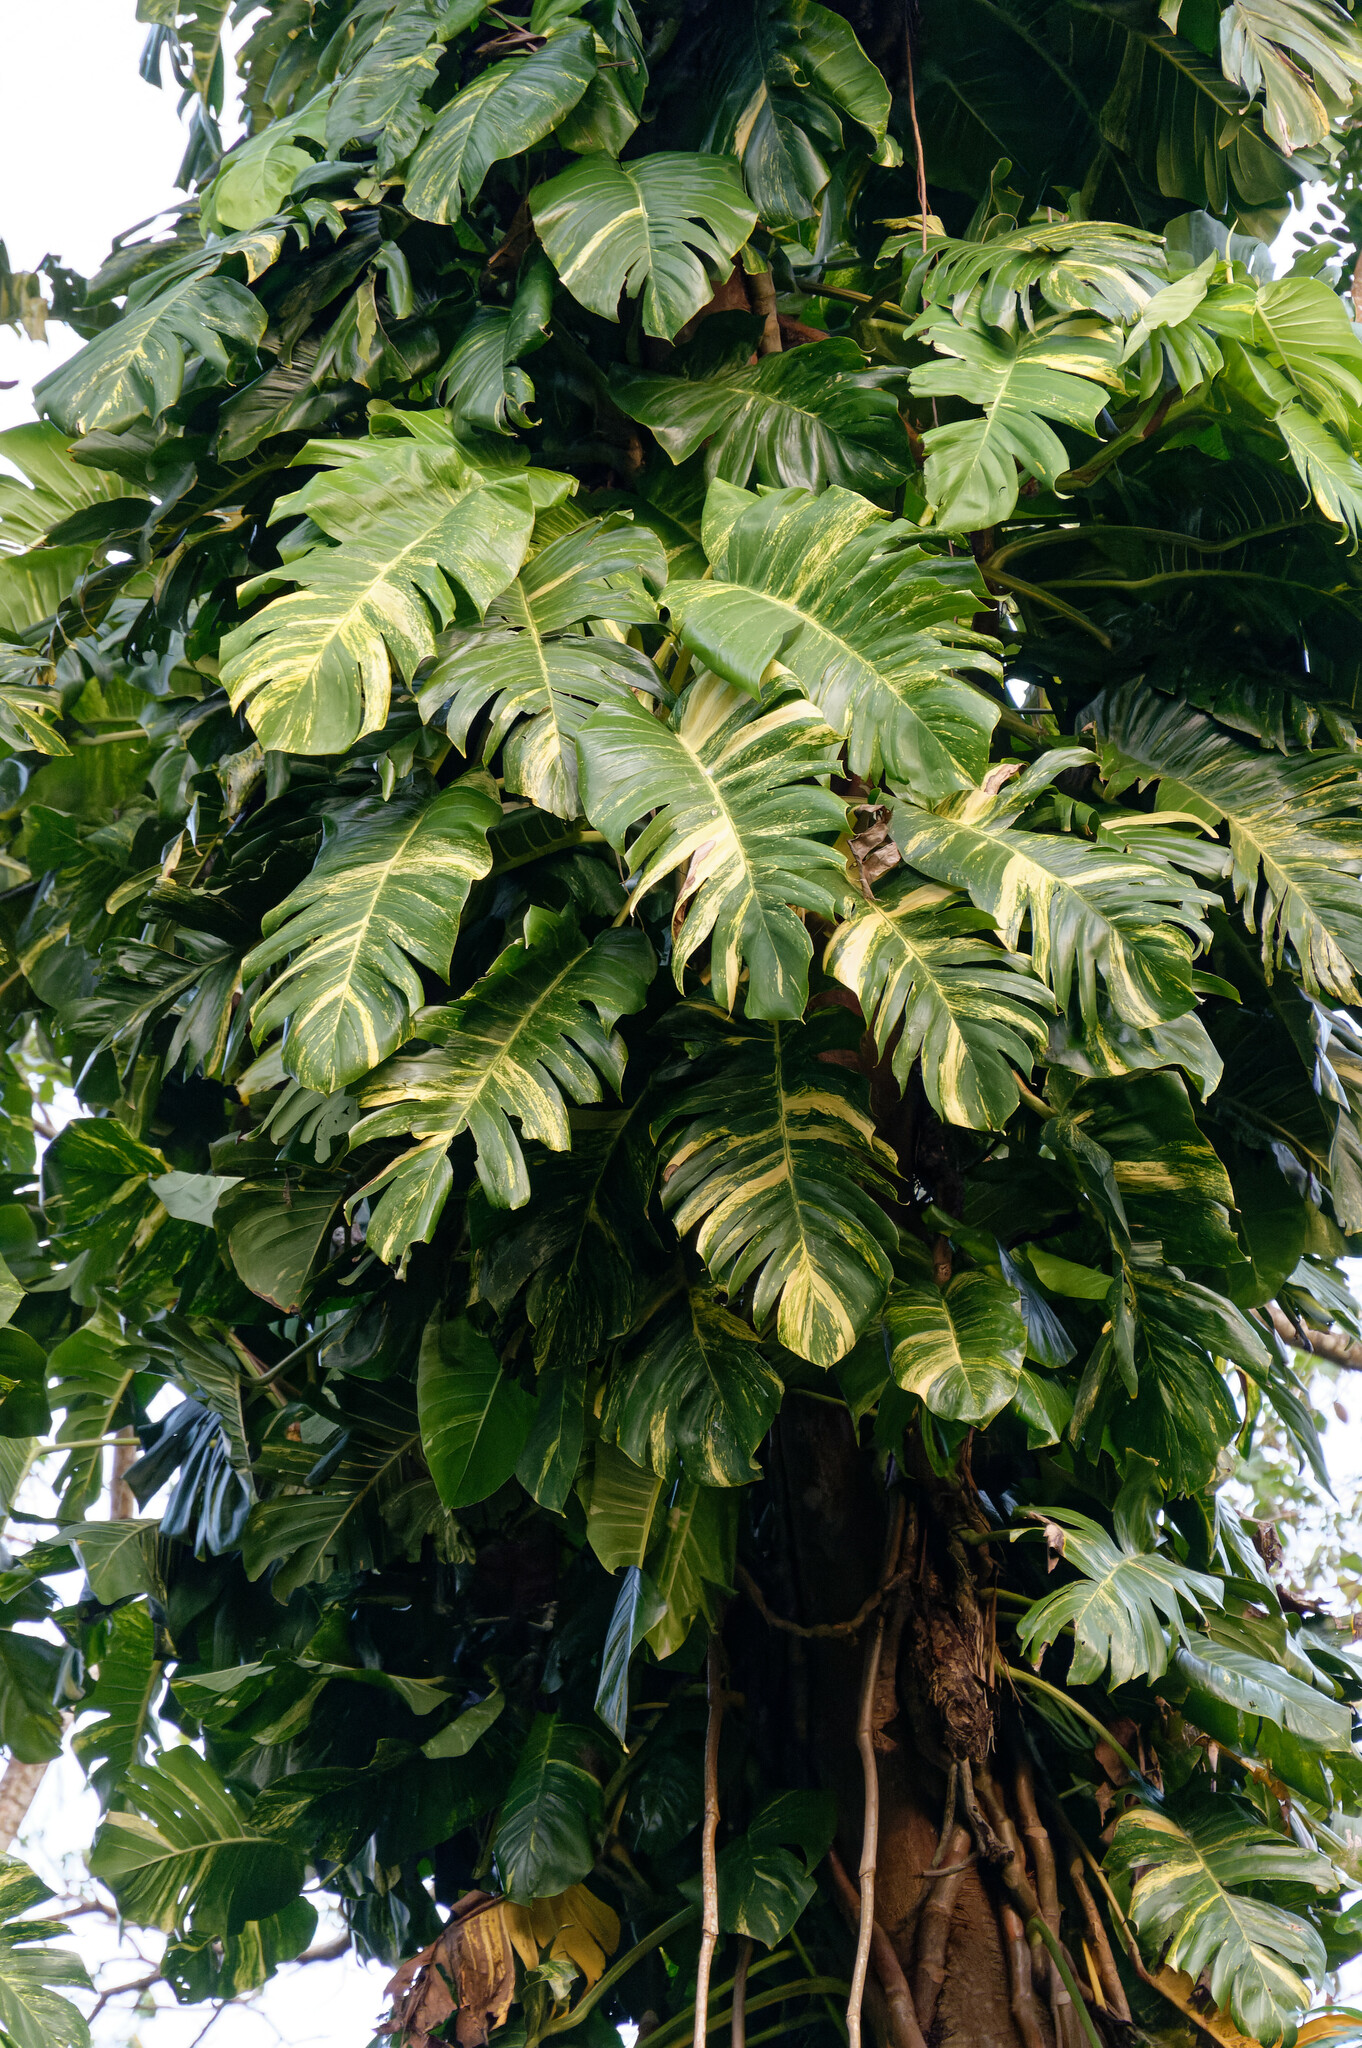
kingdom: Plantae
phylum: Tracheophyta
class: Liliopsida
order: Alismatales
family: Araceae
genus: Epipremnum
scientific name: Epipremnum aureum
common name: Golden hunter's-robe
